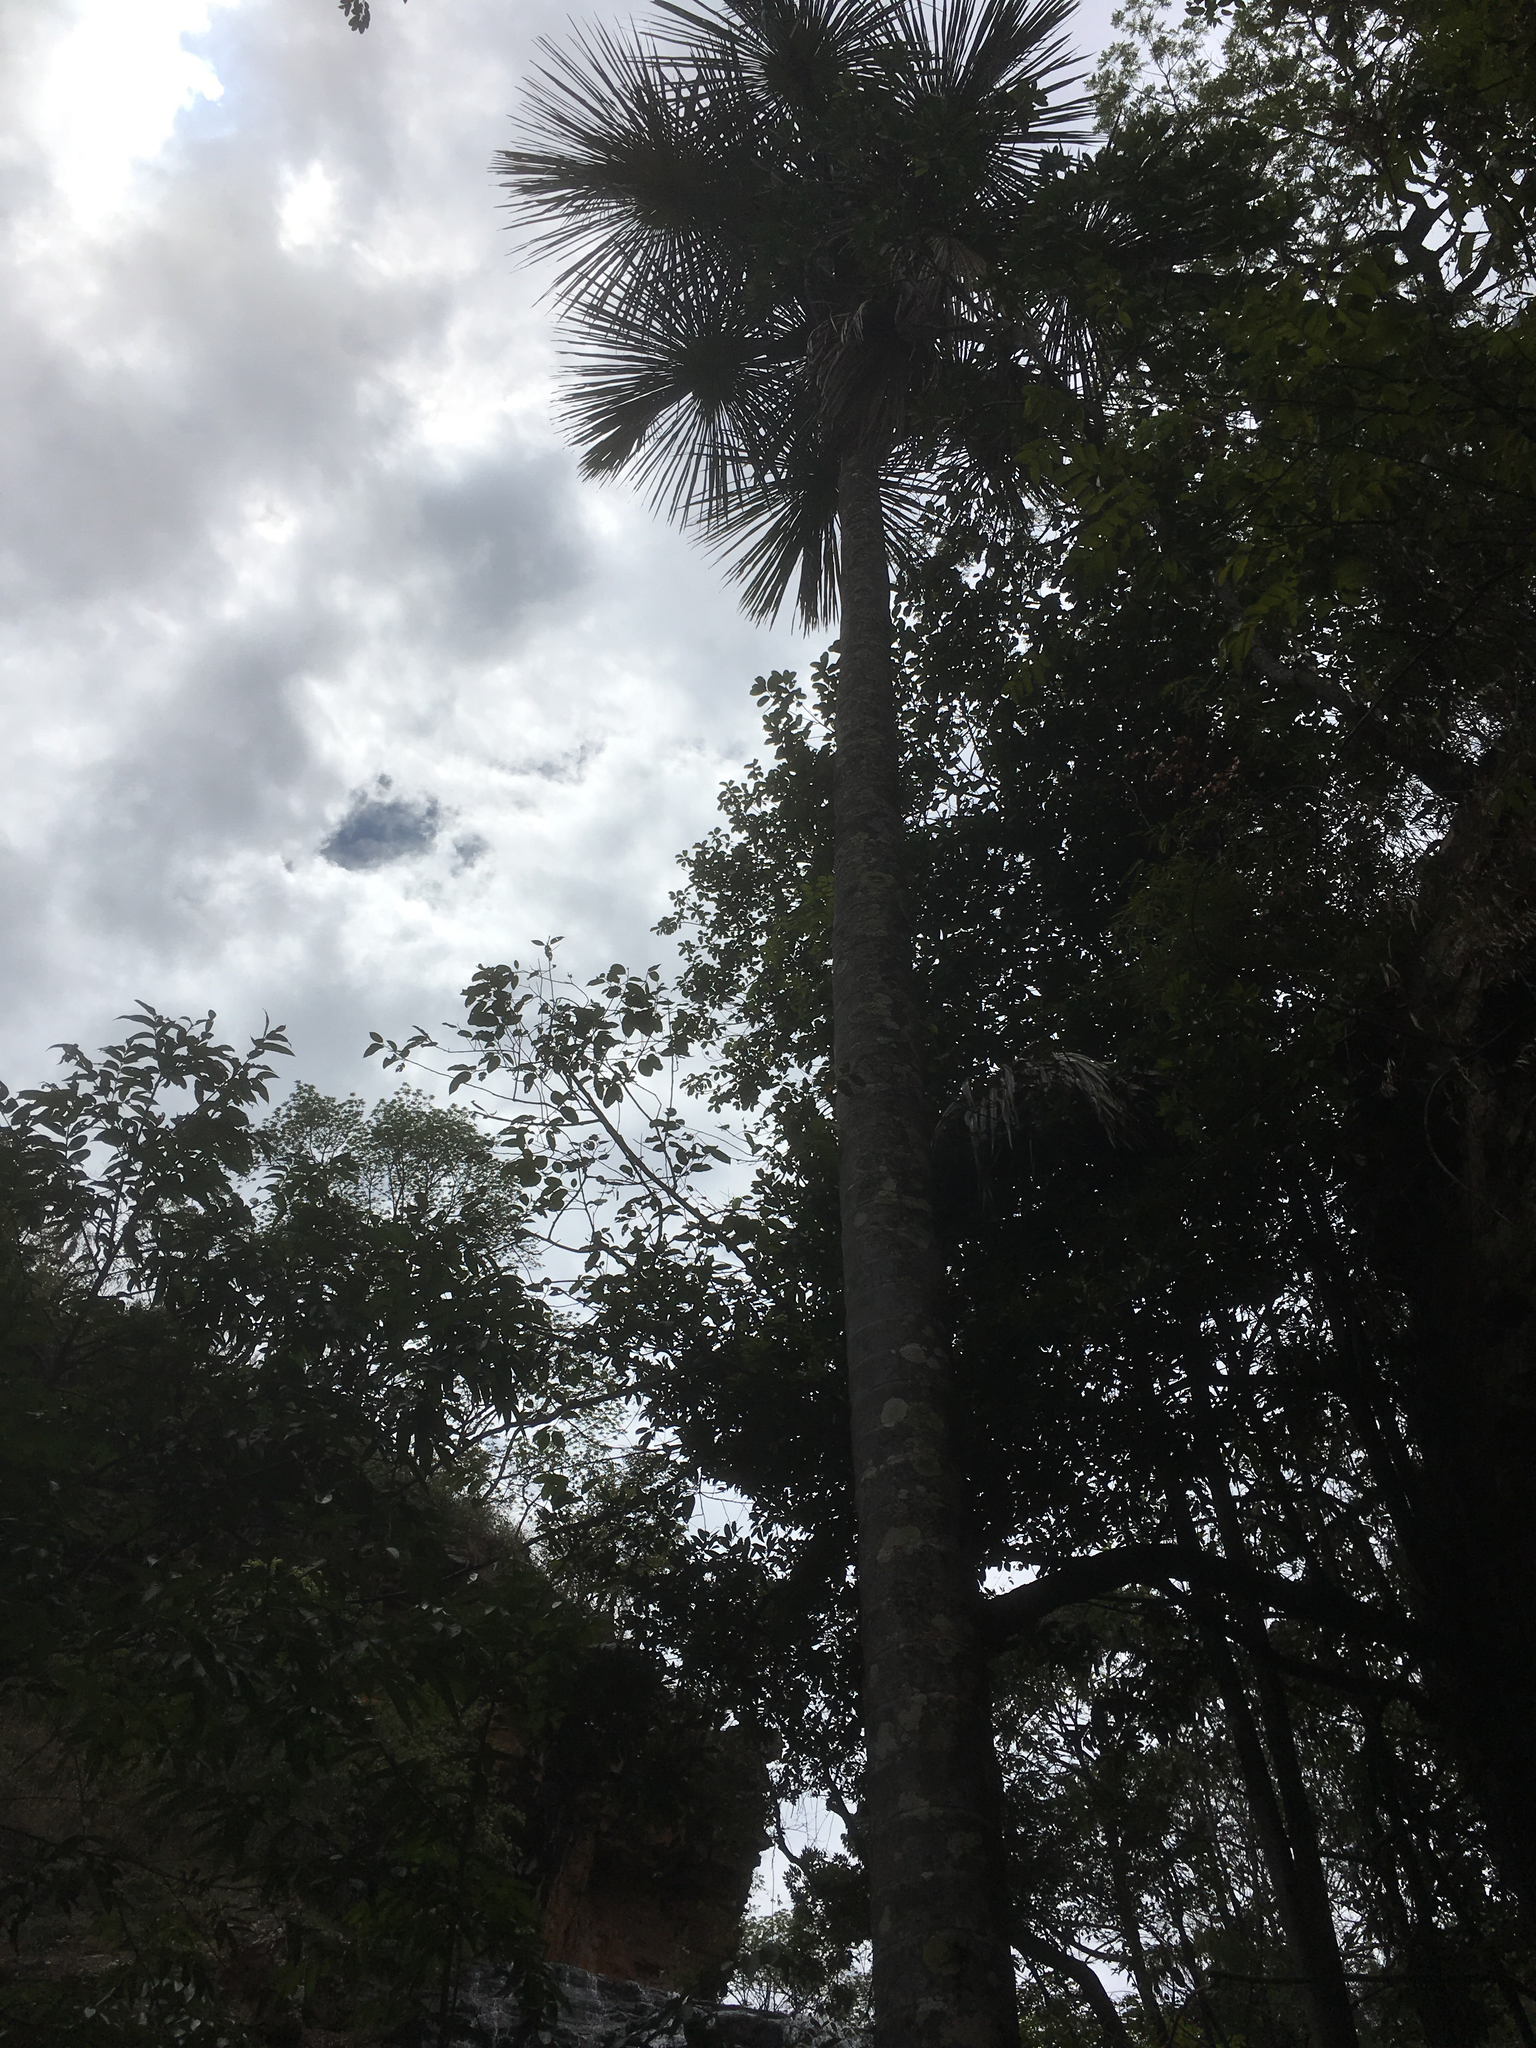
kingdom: Plantae
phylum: Tracheophyta
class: Liliopsida
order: Arecales
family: Arecaceae
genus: Mauritia
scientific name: Mauritia flexuosa
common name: Tree-of-life
